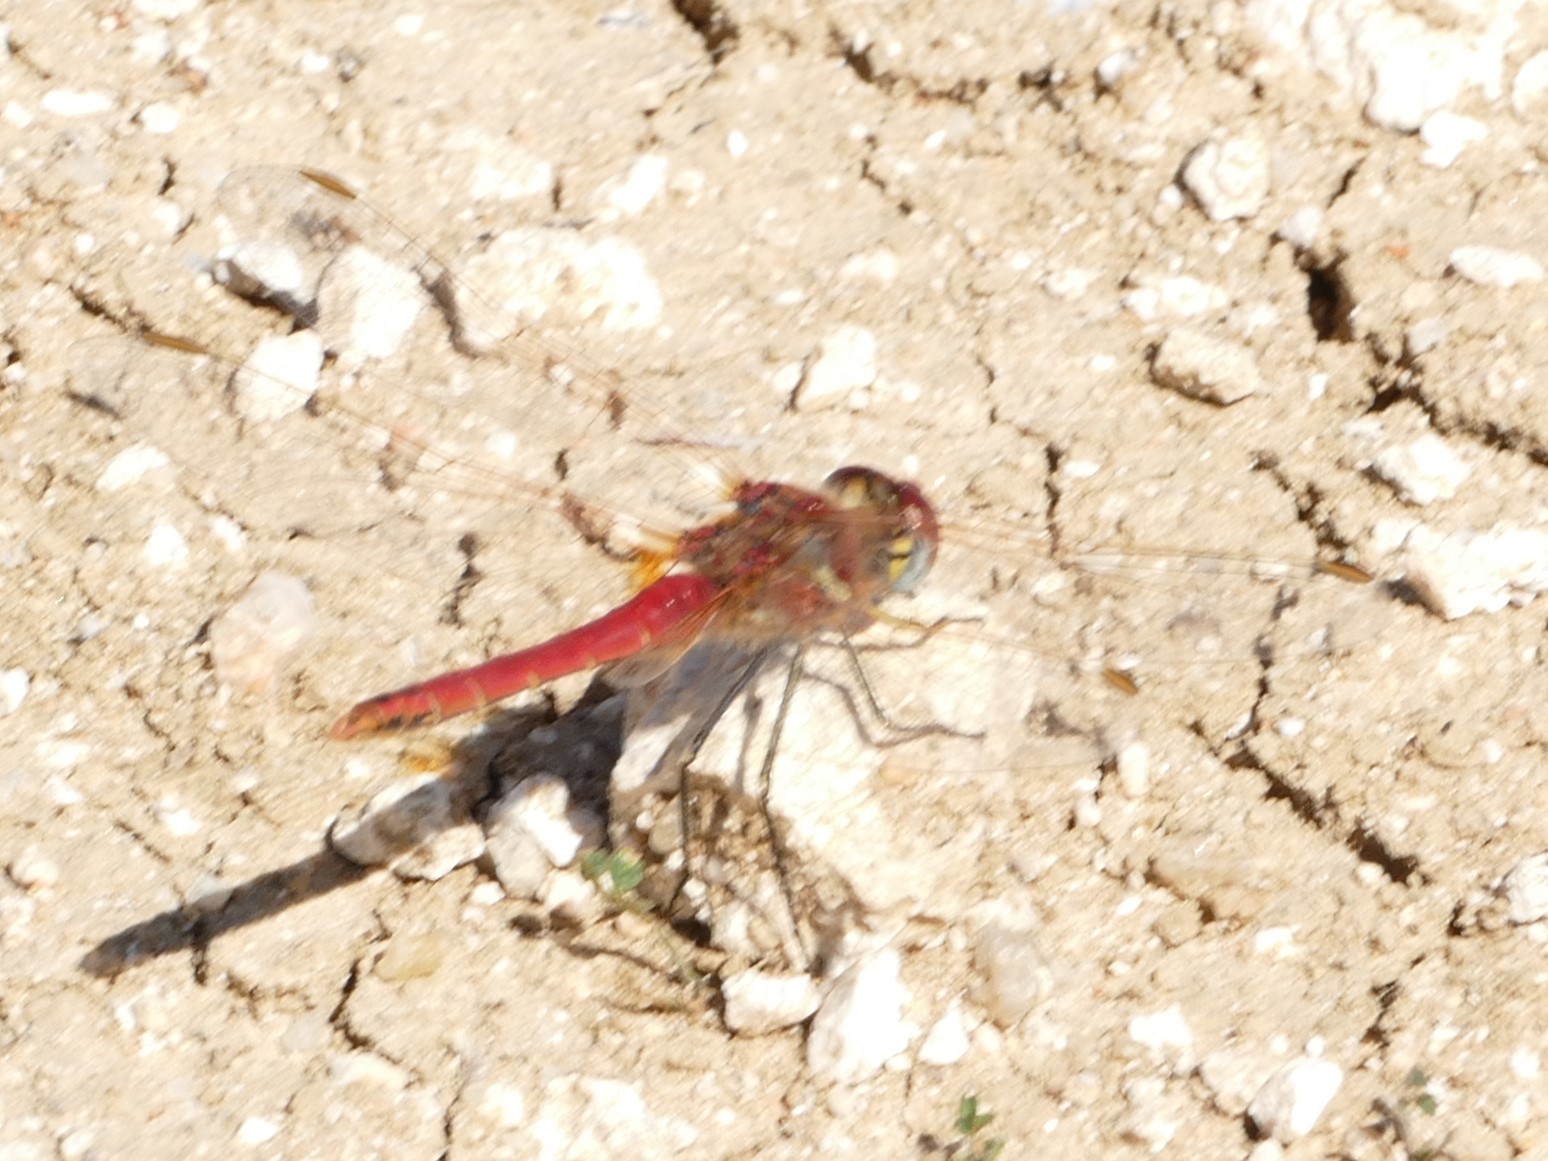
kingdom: Animalia
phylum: Arthropoda
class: Insecta
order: Odonata
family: Libellulidae
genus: Sympetrum
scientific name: Sympetrum fonscolombii
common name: Red-veined darter
